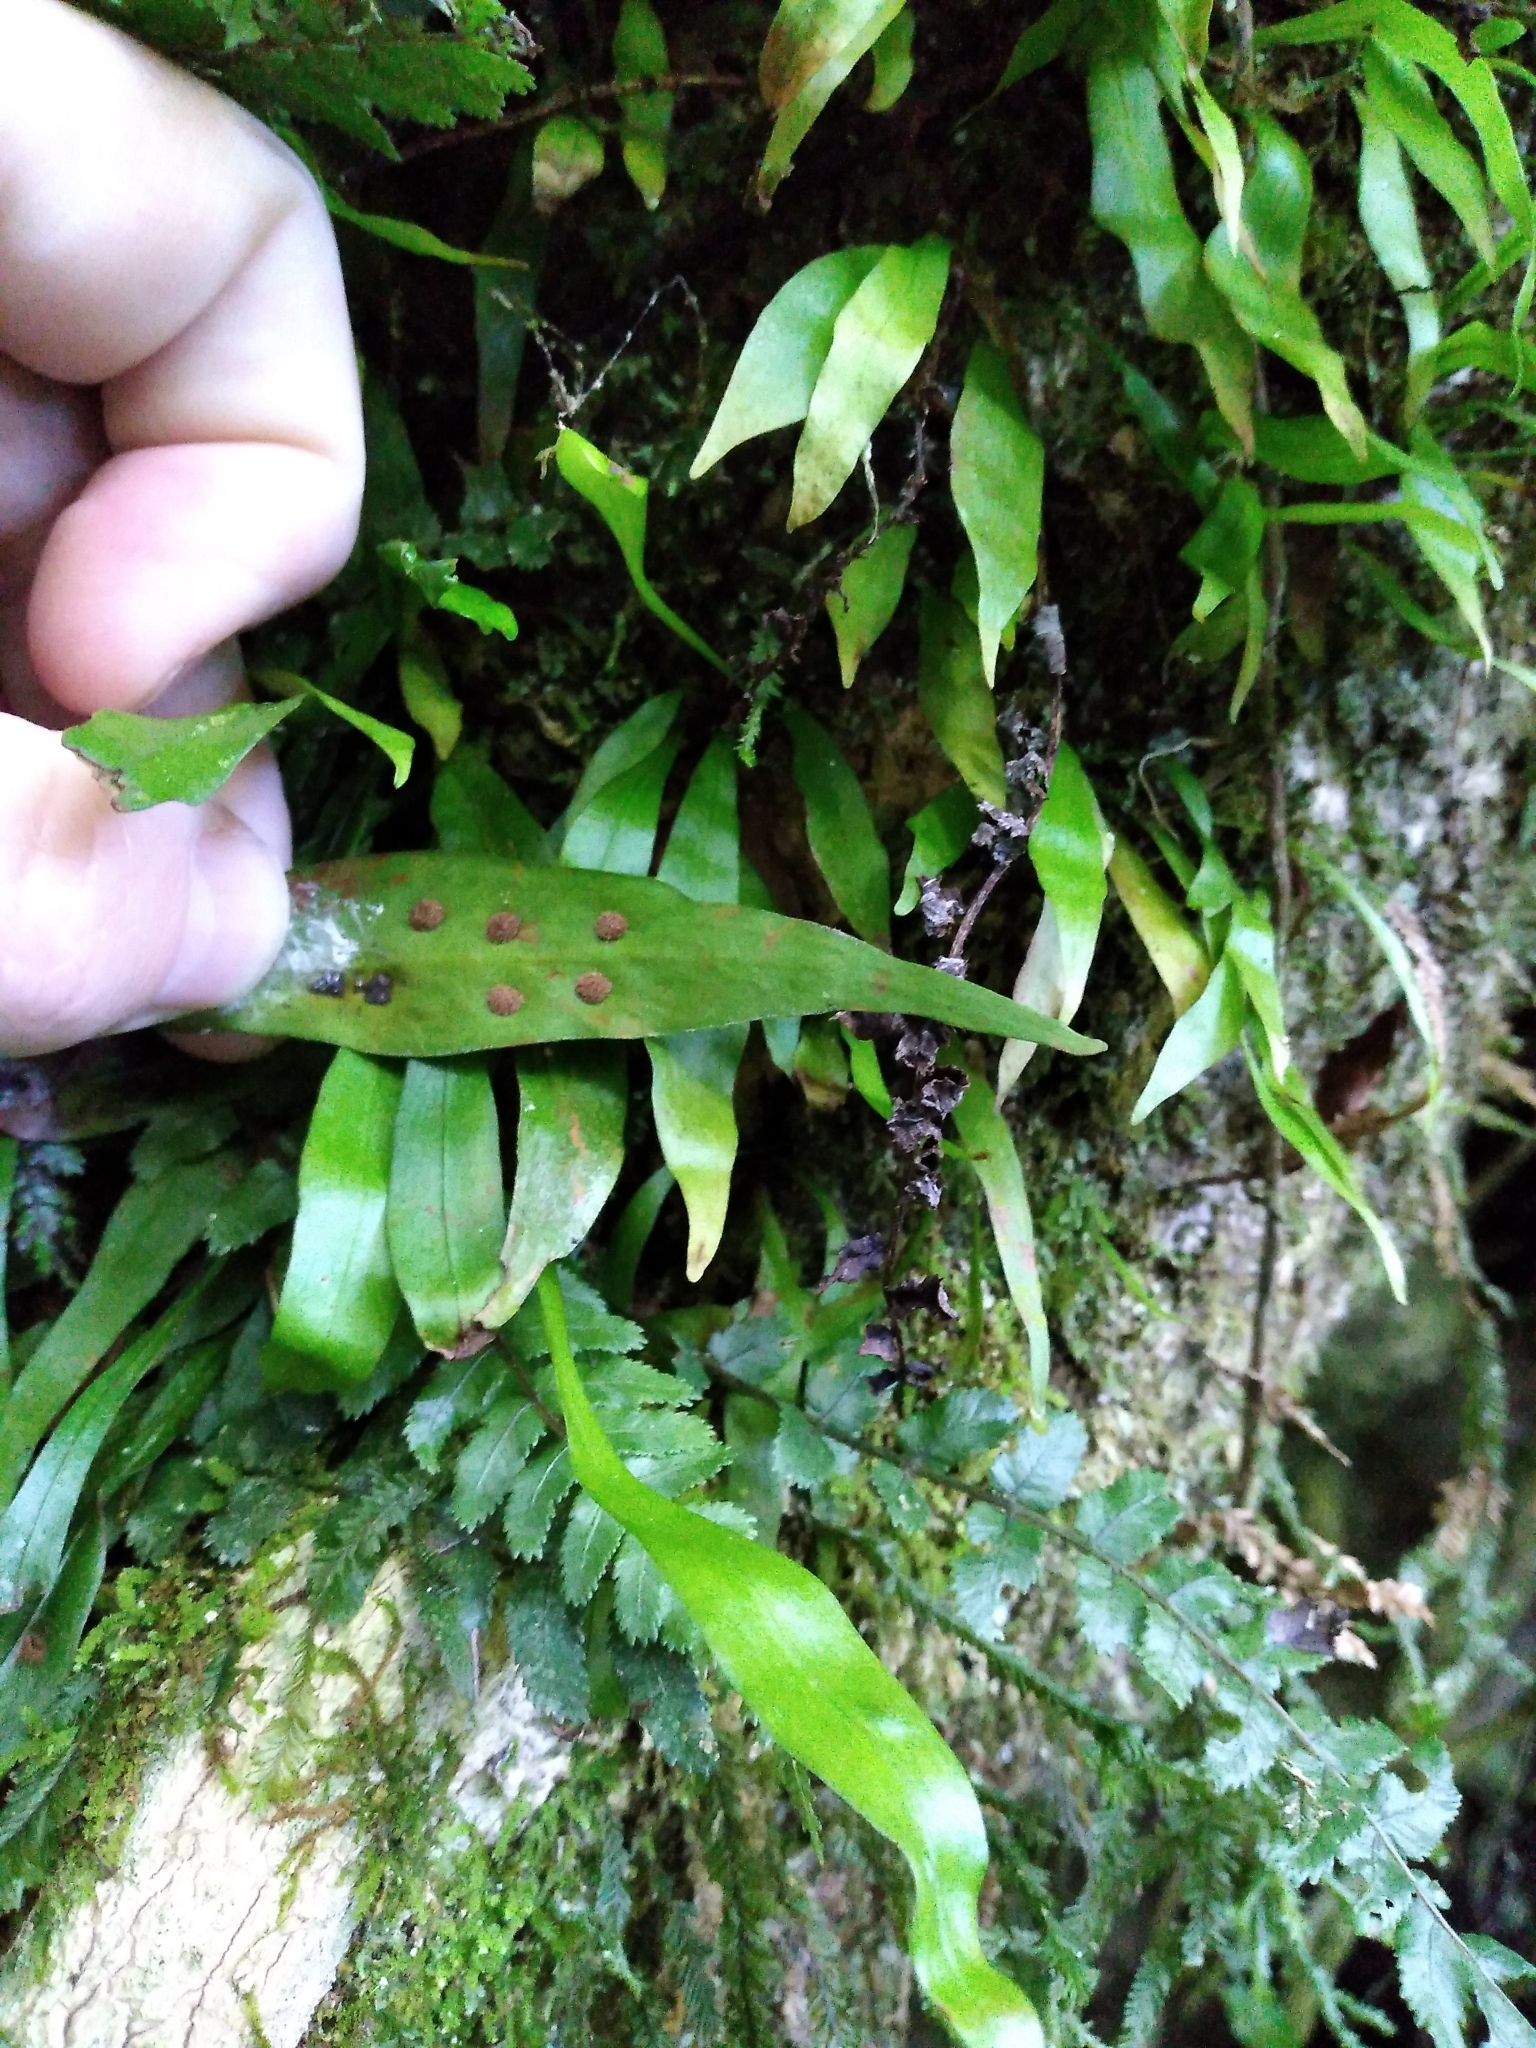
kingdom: Plantae
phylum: Tracheophyta
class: Polypodiopsida
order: Polypodiales
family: Polypodiaceae
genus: Loxogramme
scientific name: Loxogramme dictyopteris
